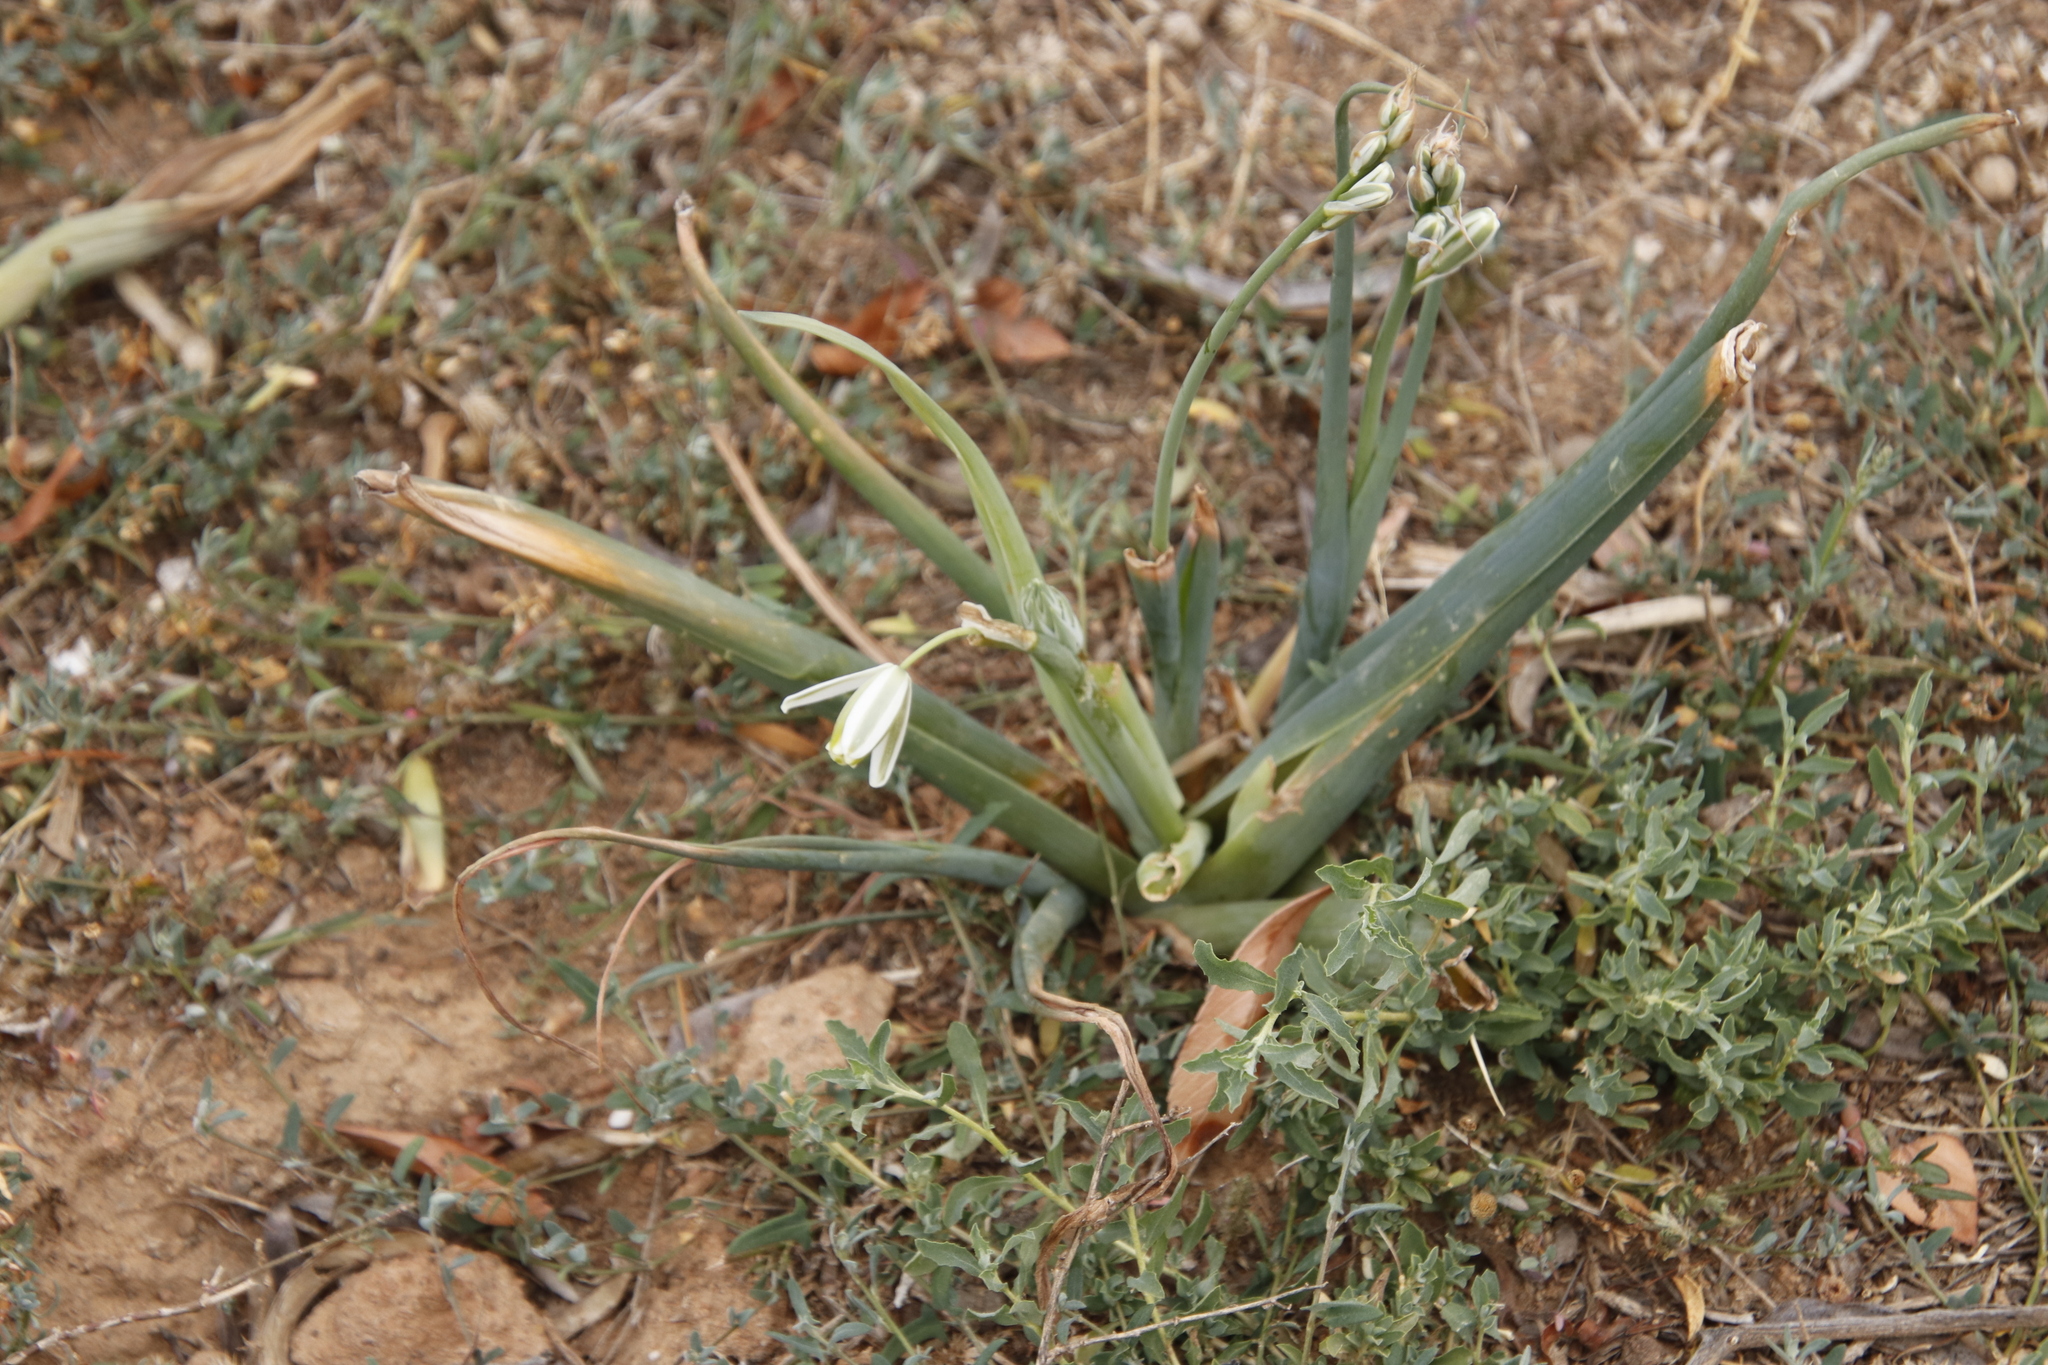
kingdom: Plantae
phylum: Tracheophyta
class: Liliopsida
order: Asparagales
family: Asparagaceae
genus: Albuca
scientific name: Albuca setosa
